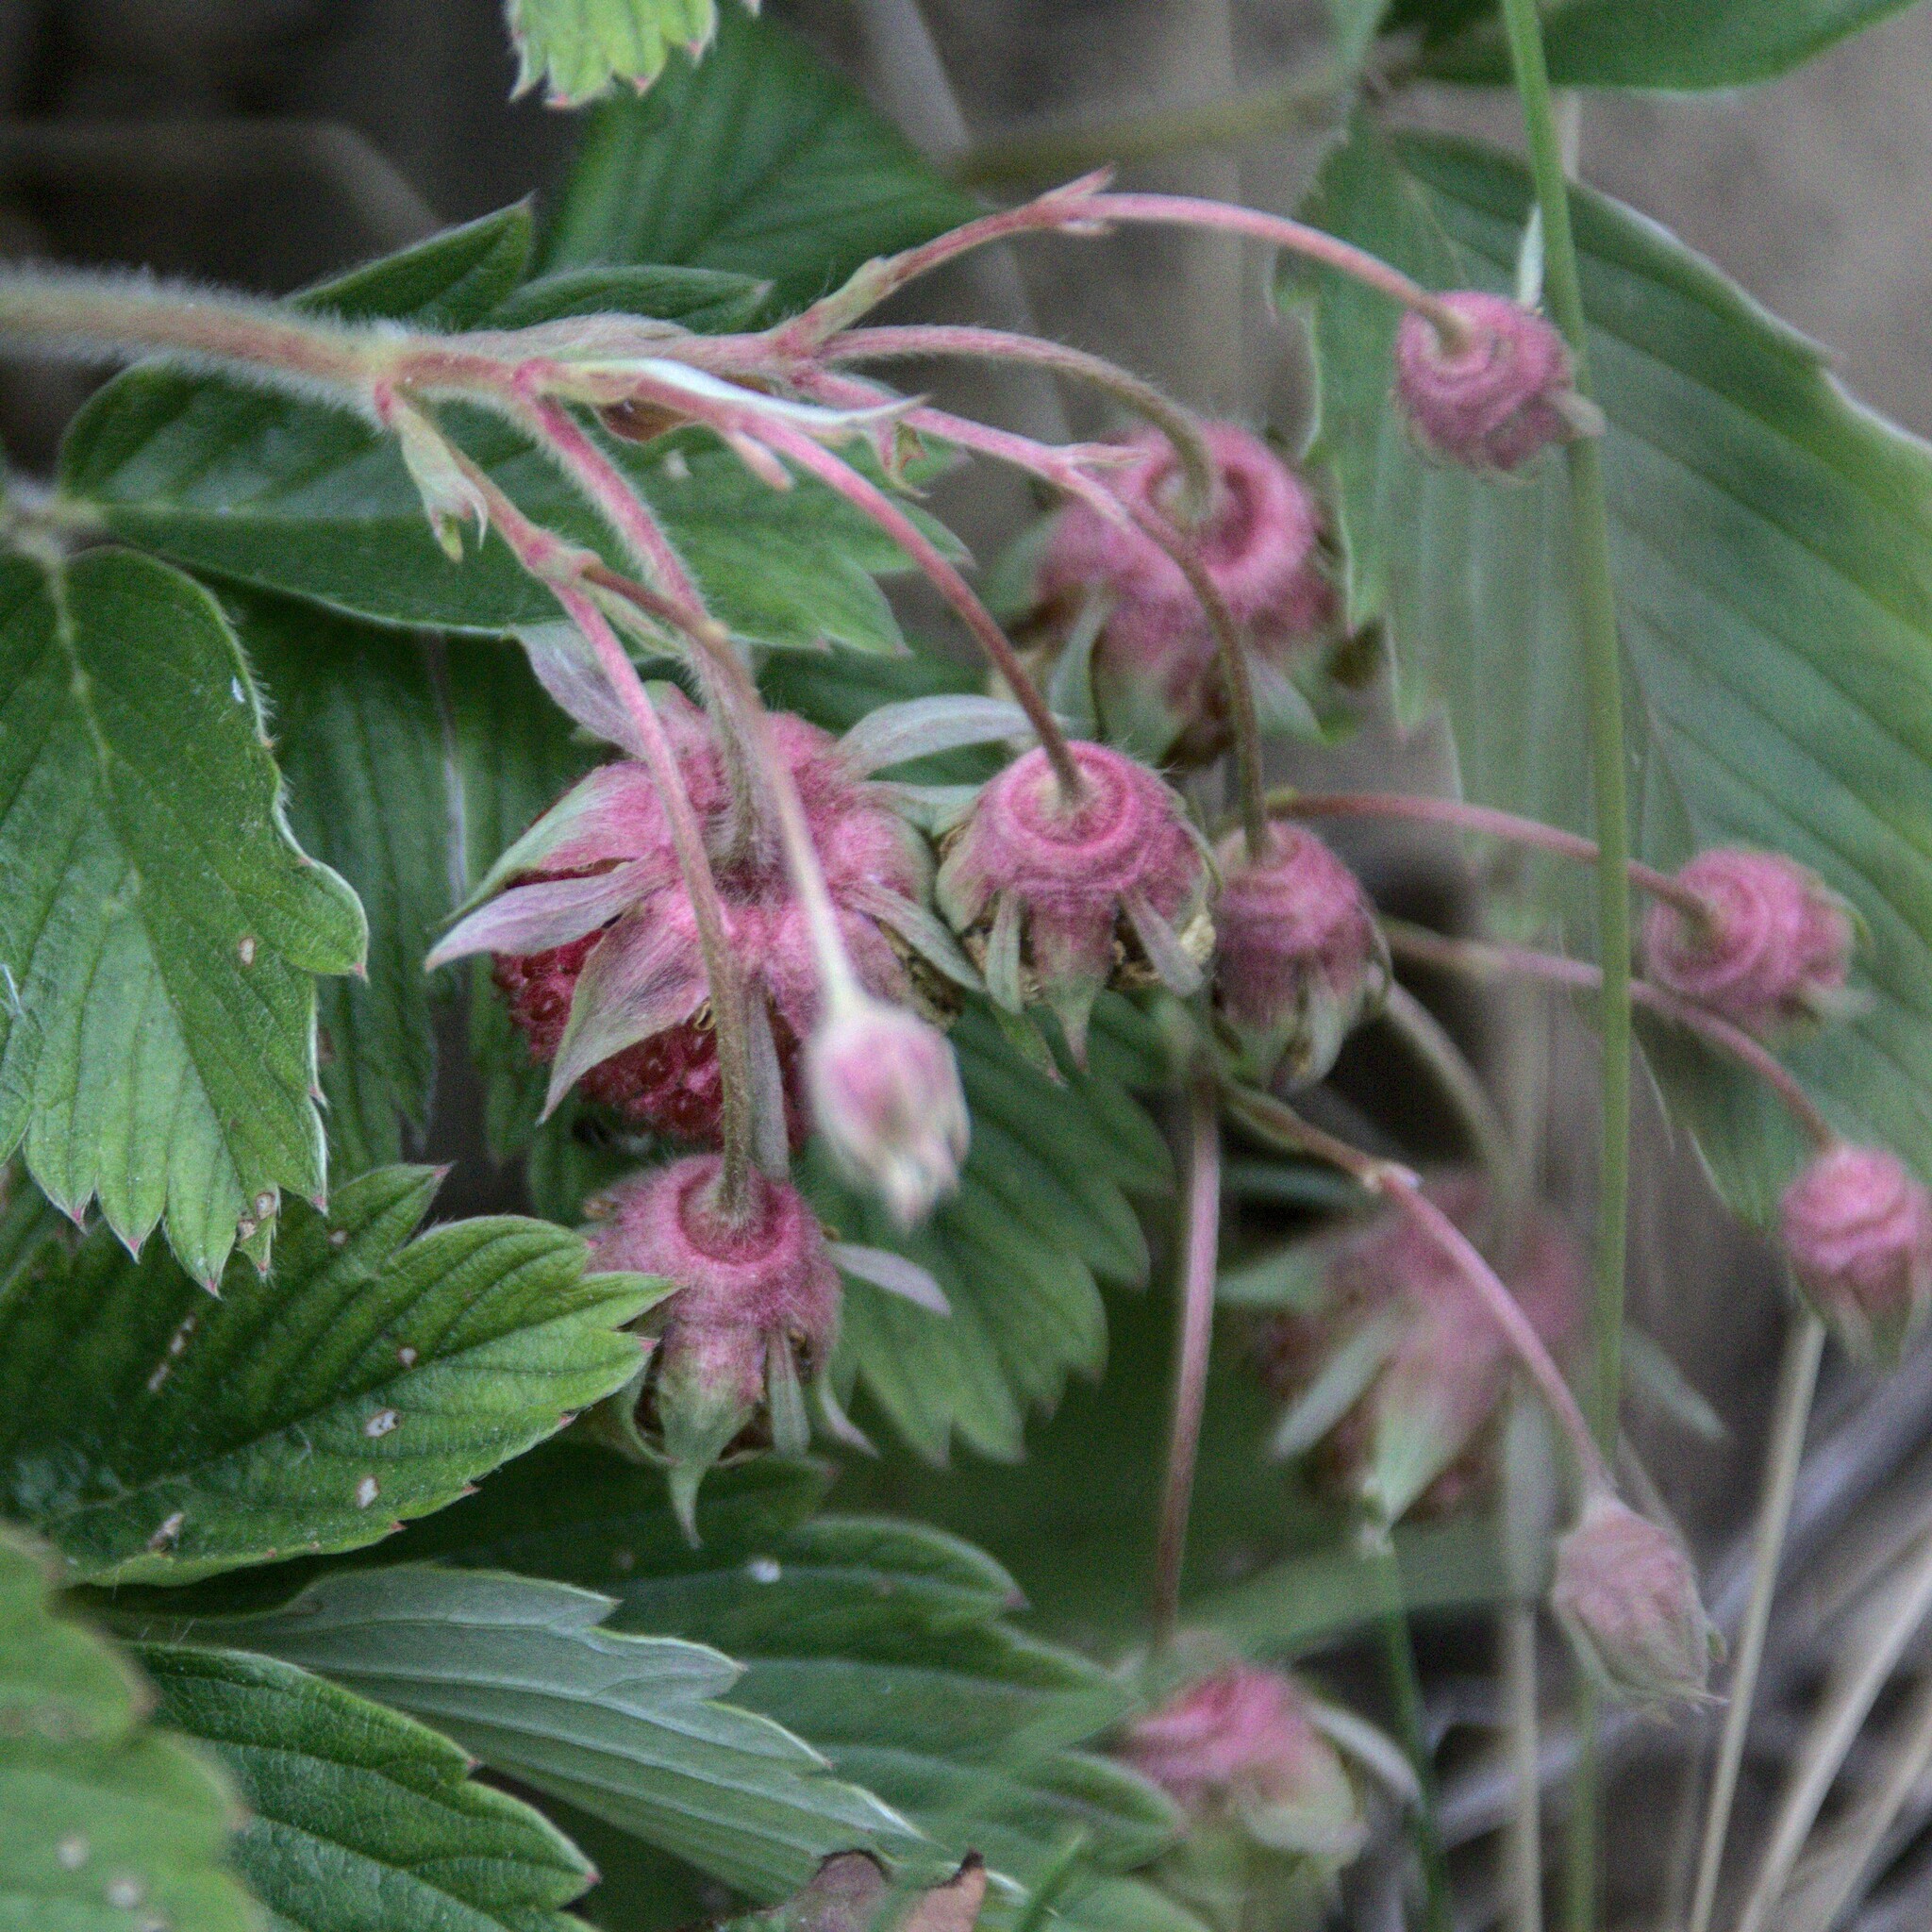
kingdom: Plantae
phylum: Tracheophyta
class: Magnoliopsida
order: Rosales
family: Rosaceae
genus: Fragaria
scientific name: Fragaria viridis
